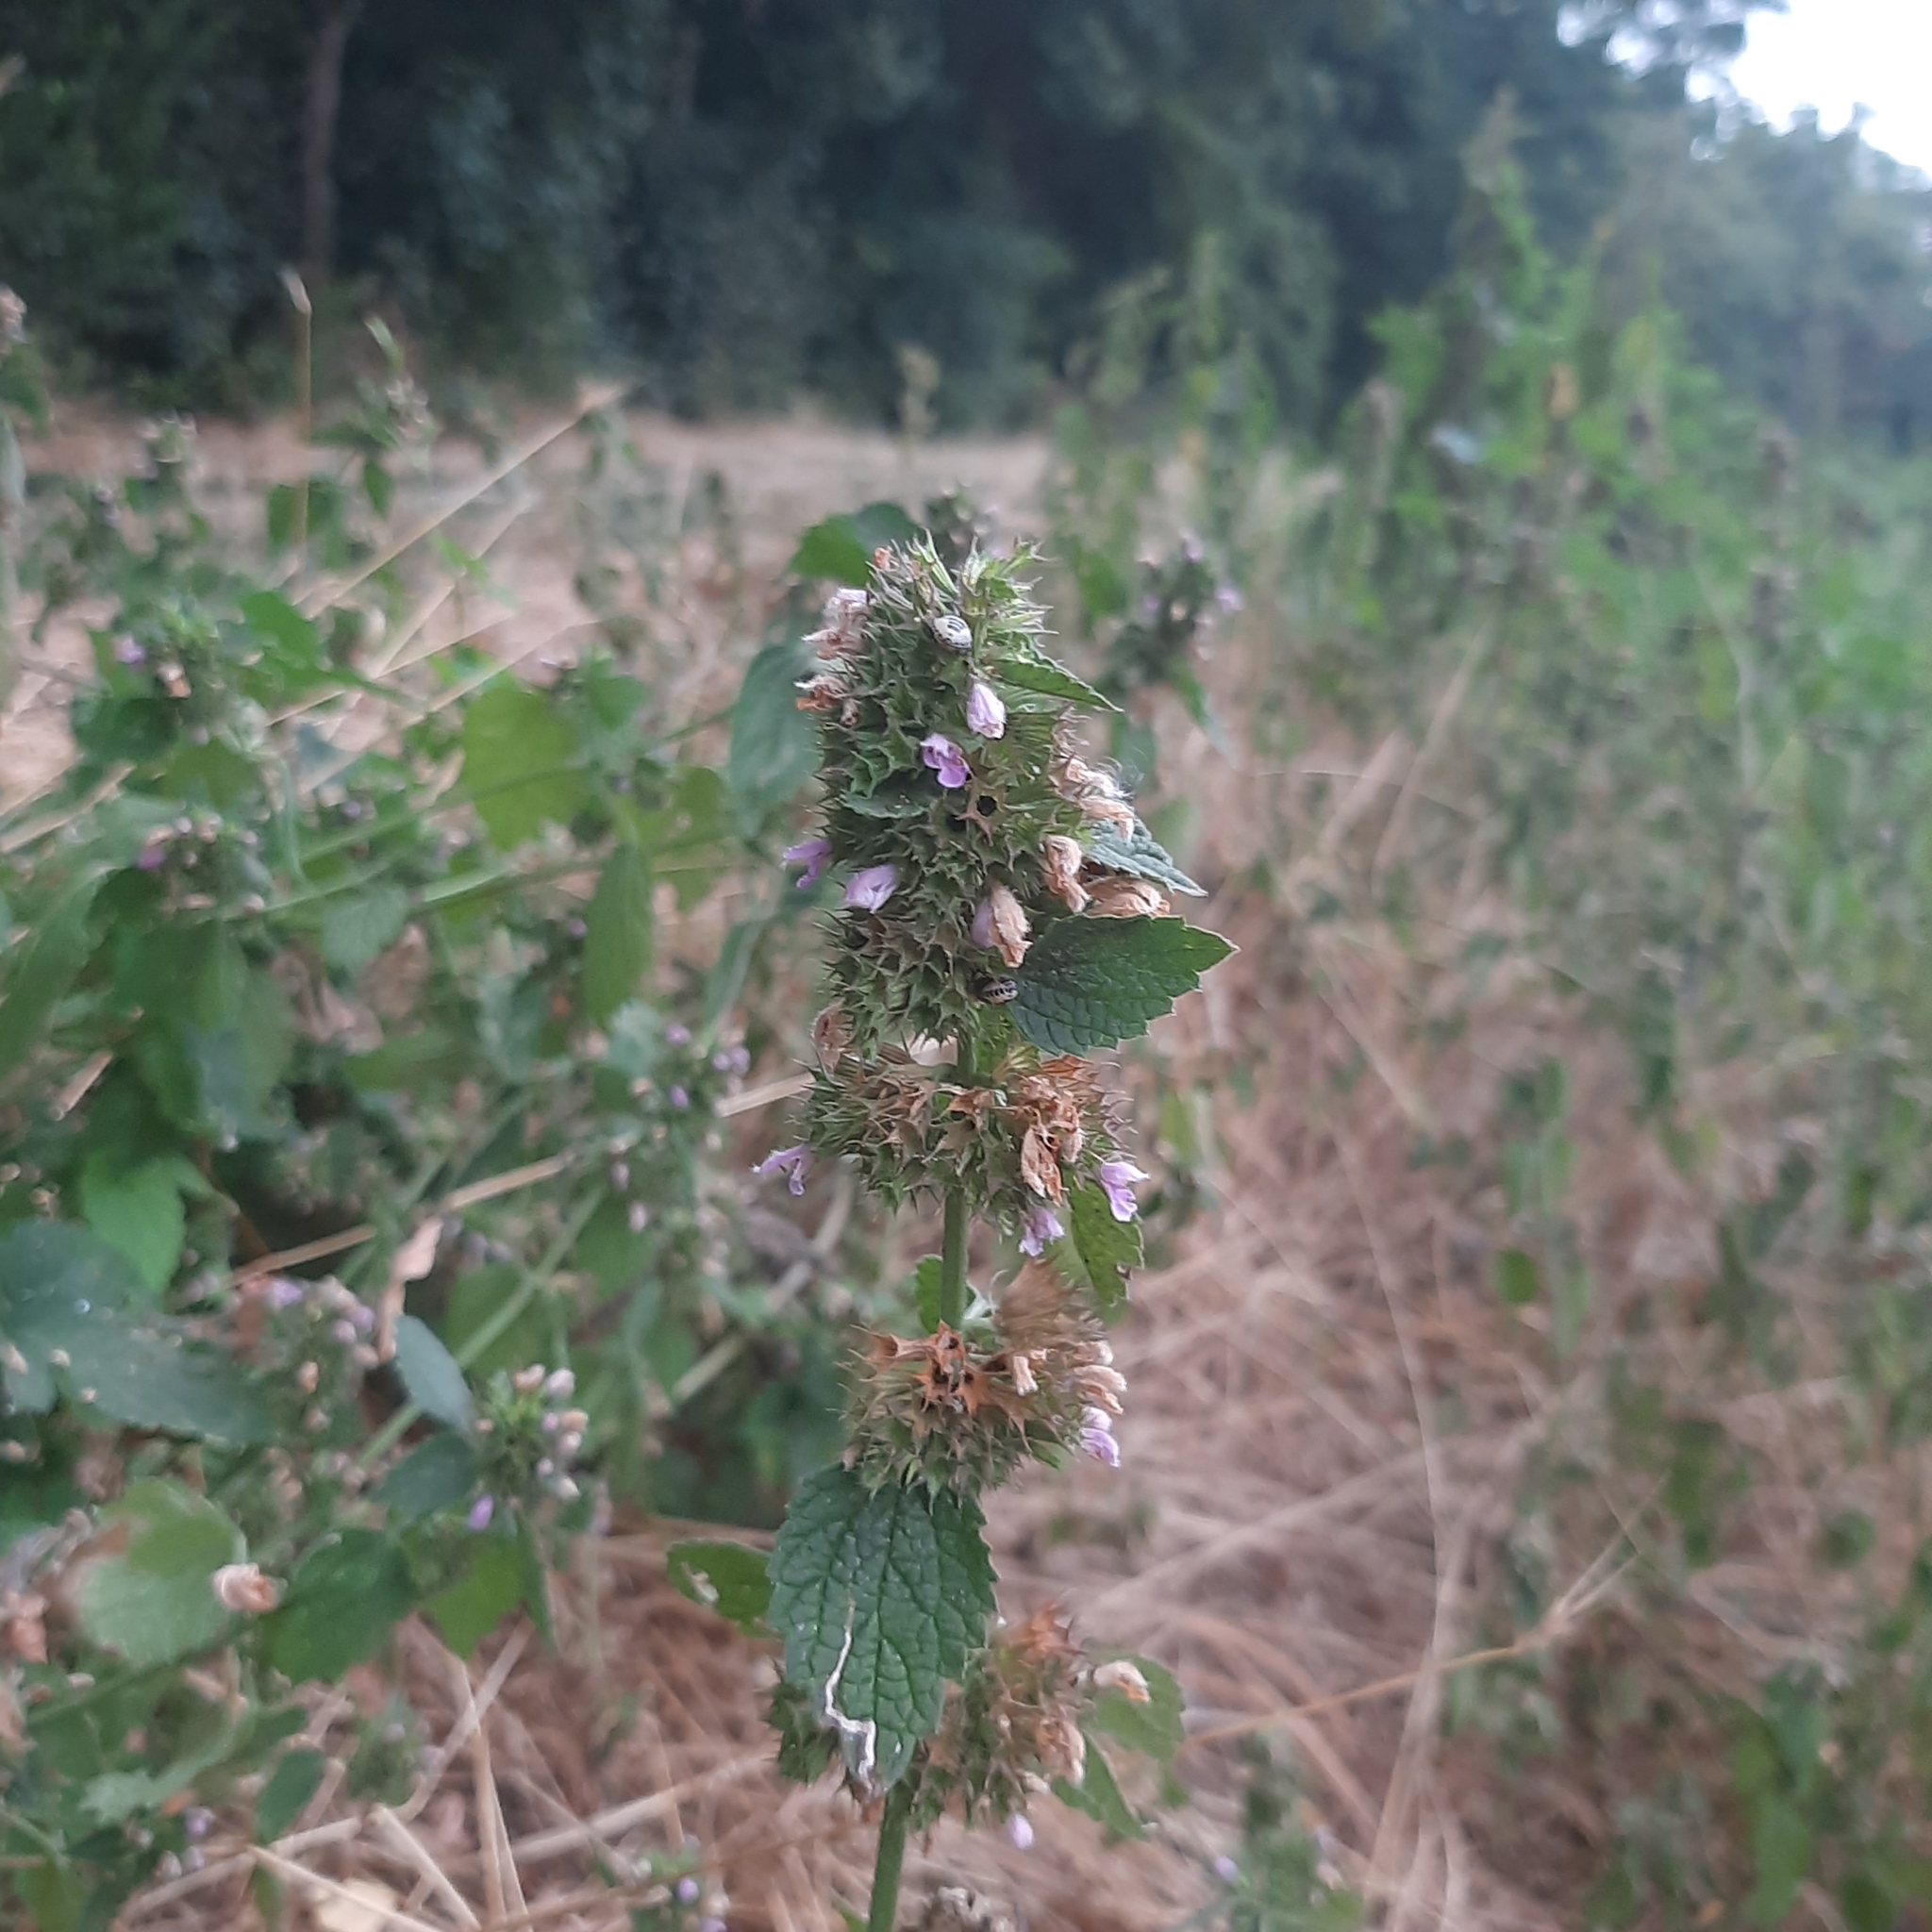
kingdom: Plantae
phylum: Tracheophyta
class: Magnoliopsida
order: Lamiales
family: Lamiaceae
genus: Ballota
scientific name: Ballota nigra
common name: Black horehound
